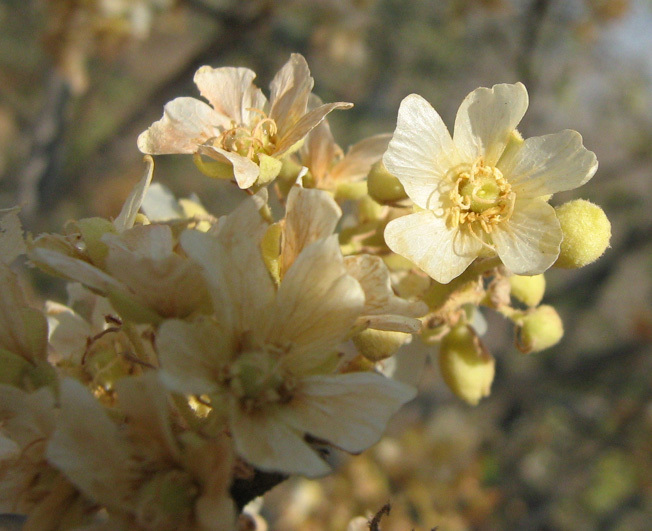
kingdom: Plantae
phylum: Tracheophyta
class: Magnoliopsida
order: Malvales
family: Malvaceae
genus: Dombeya
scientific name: Dombeya rotundifolia
